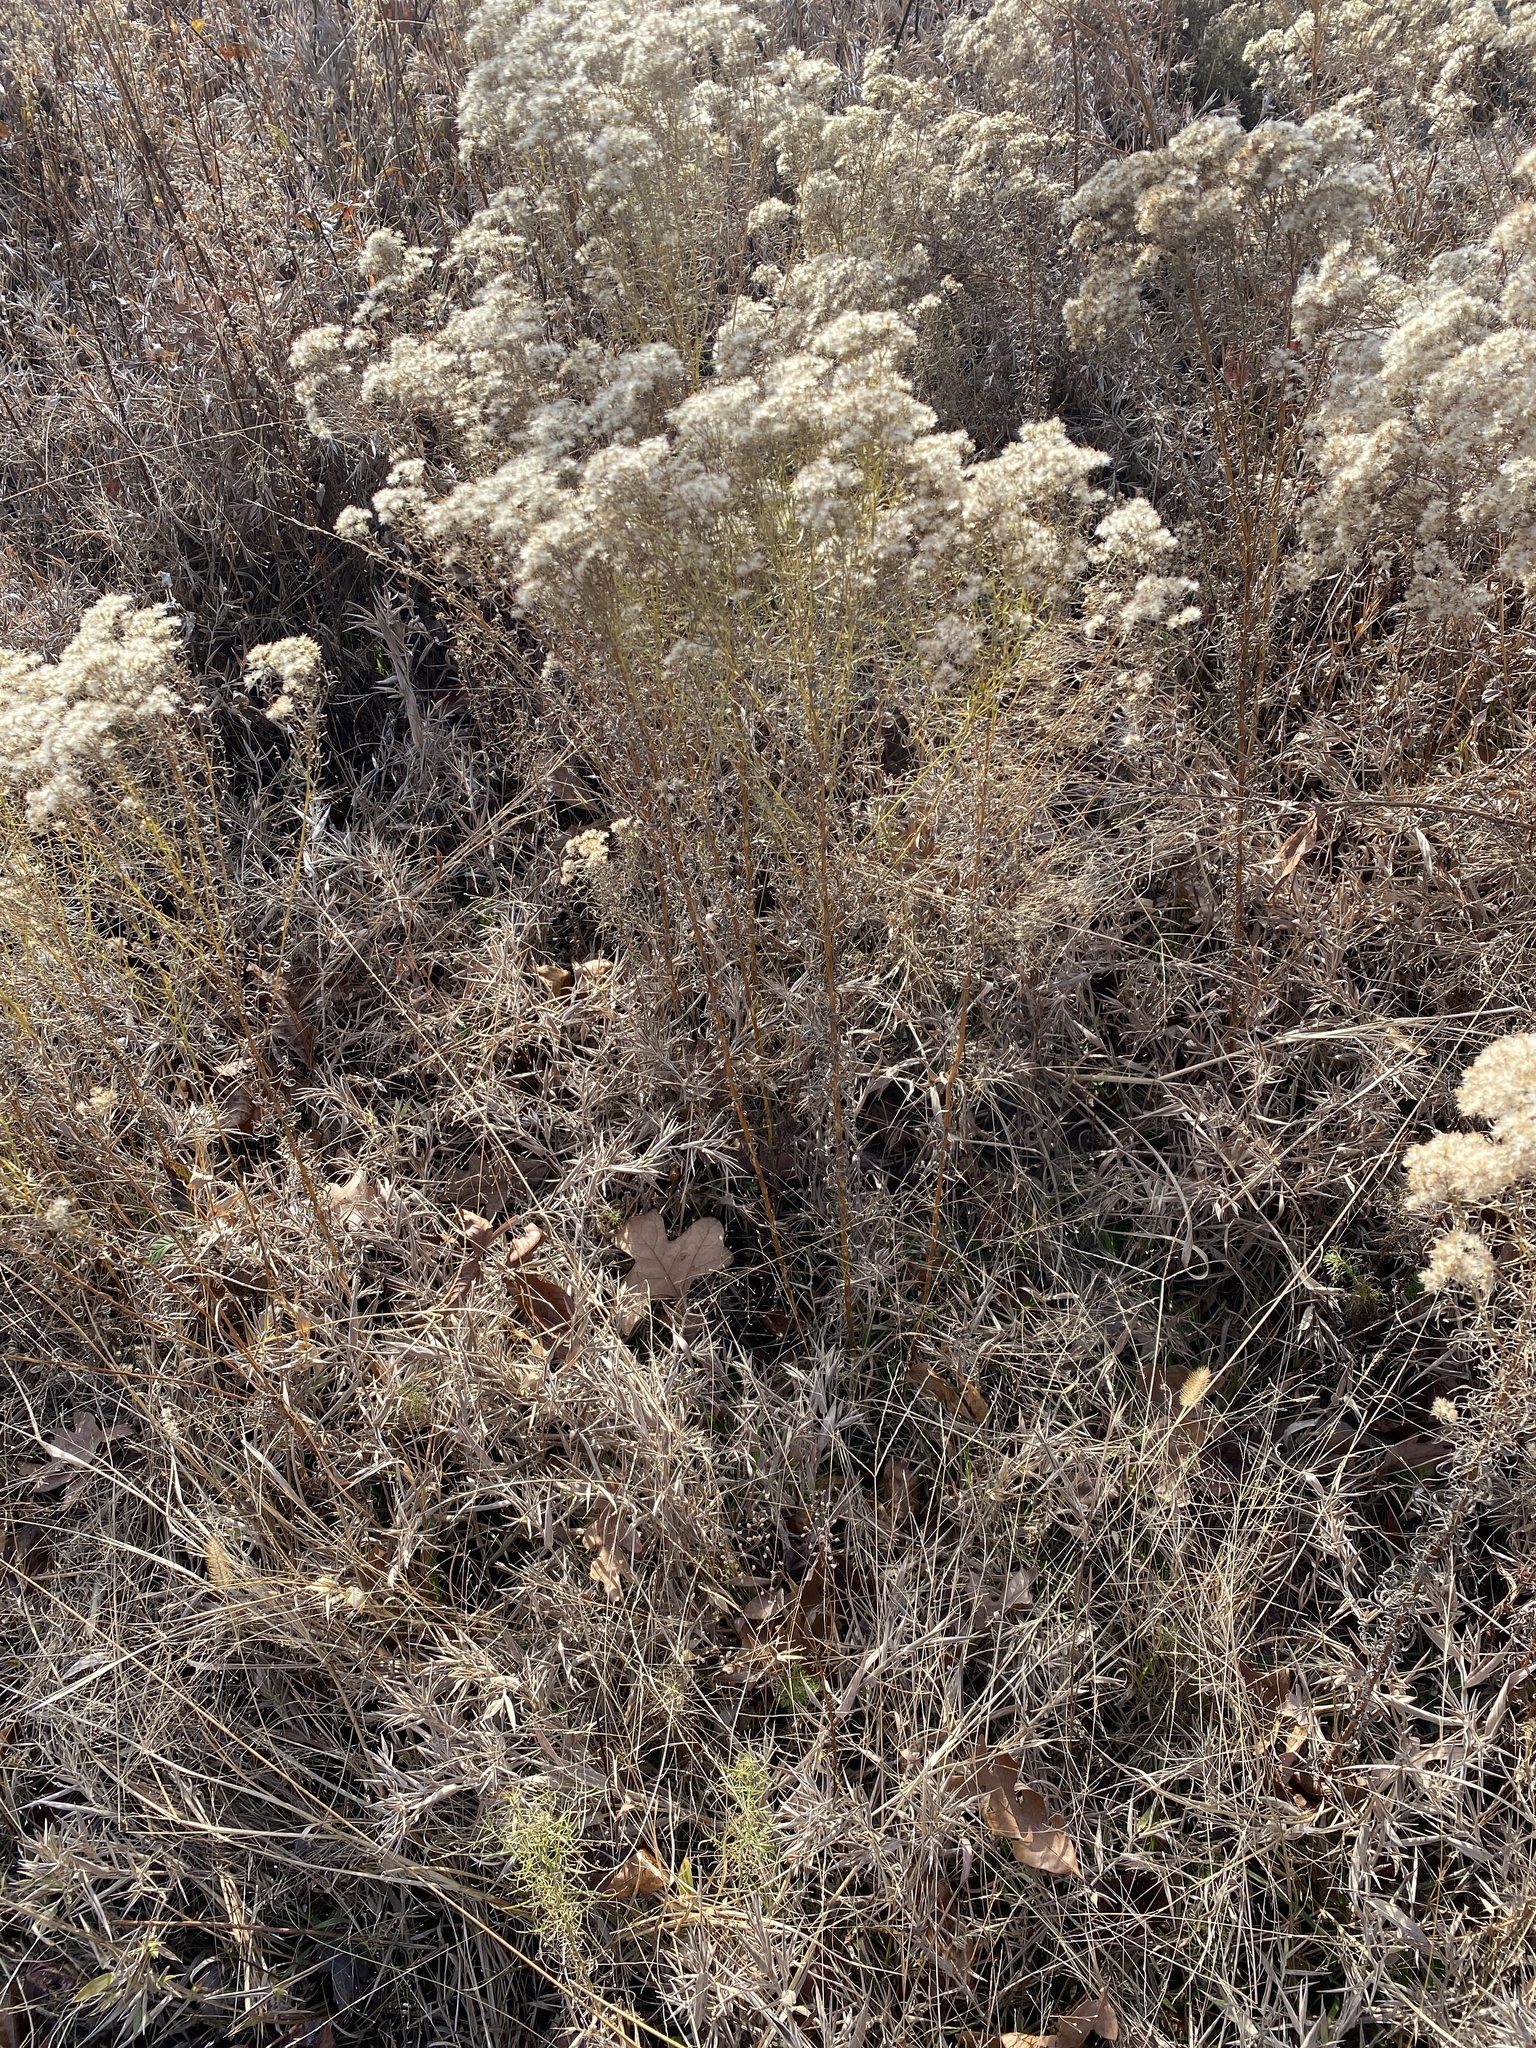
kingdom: Plantae
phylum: Tracheophyta
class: Magnoliopsida
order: Asterales
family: Asteraceae
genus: Euthamia
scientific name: Euthamia caroliniana
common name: Coastal plain goldentop
